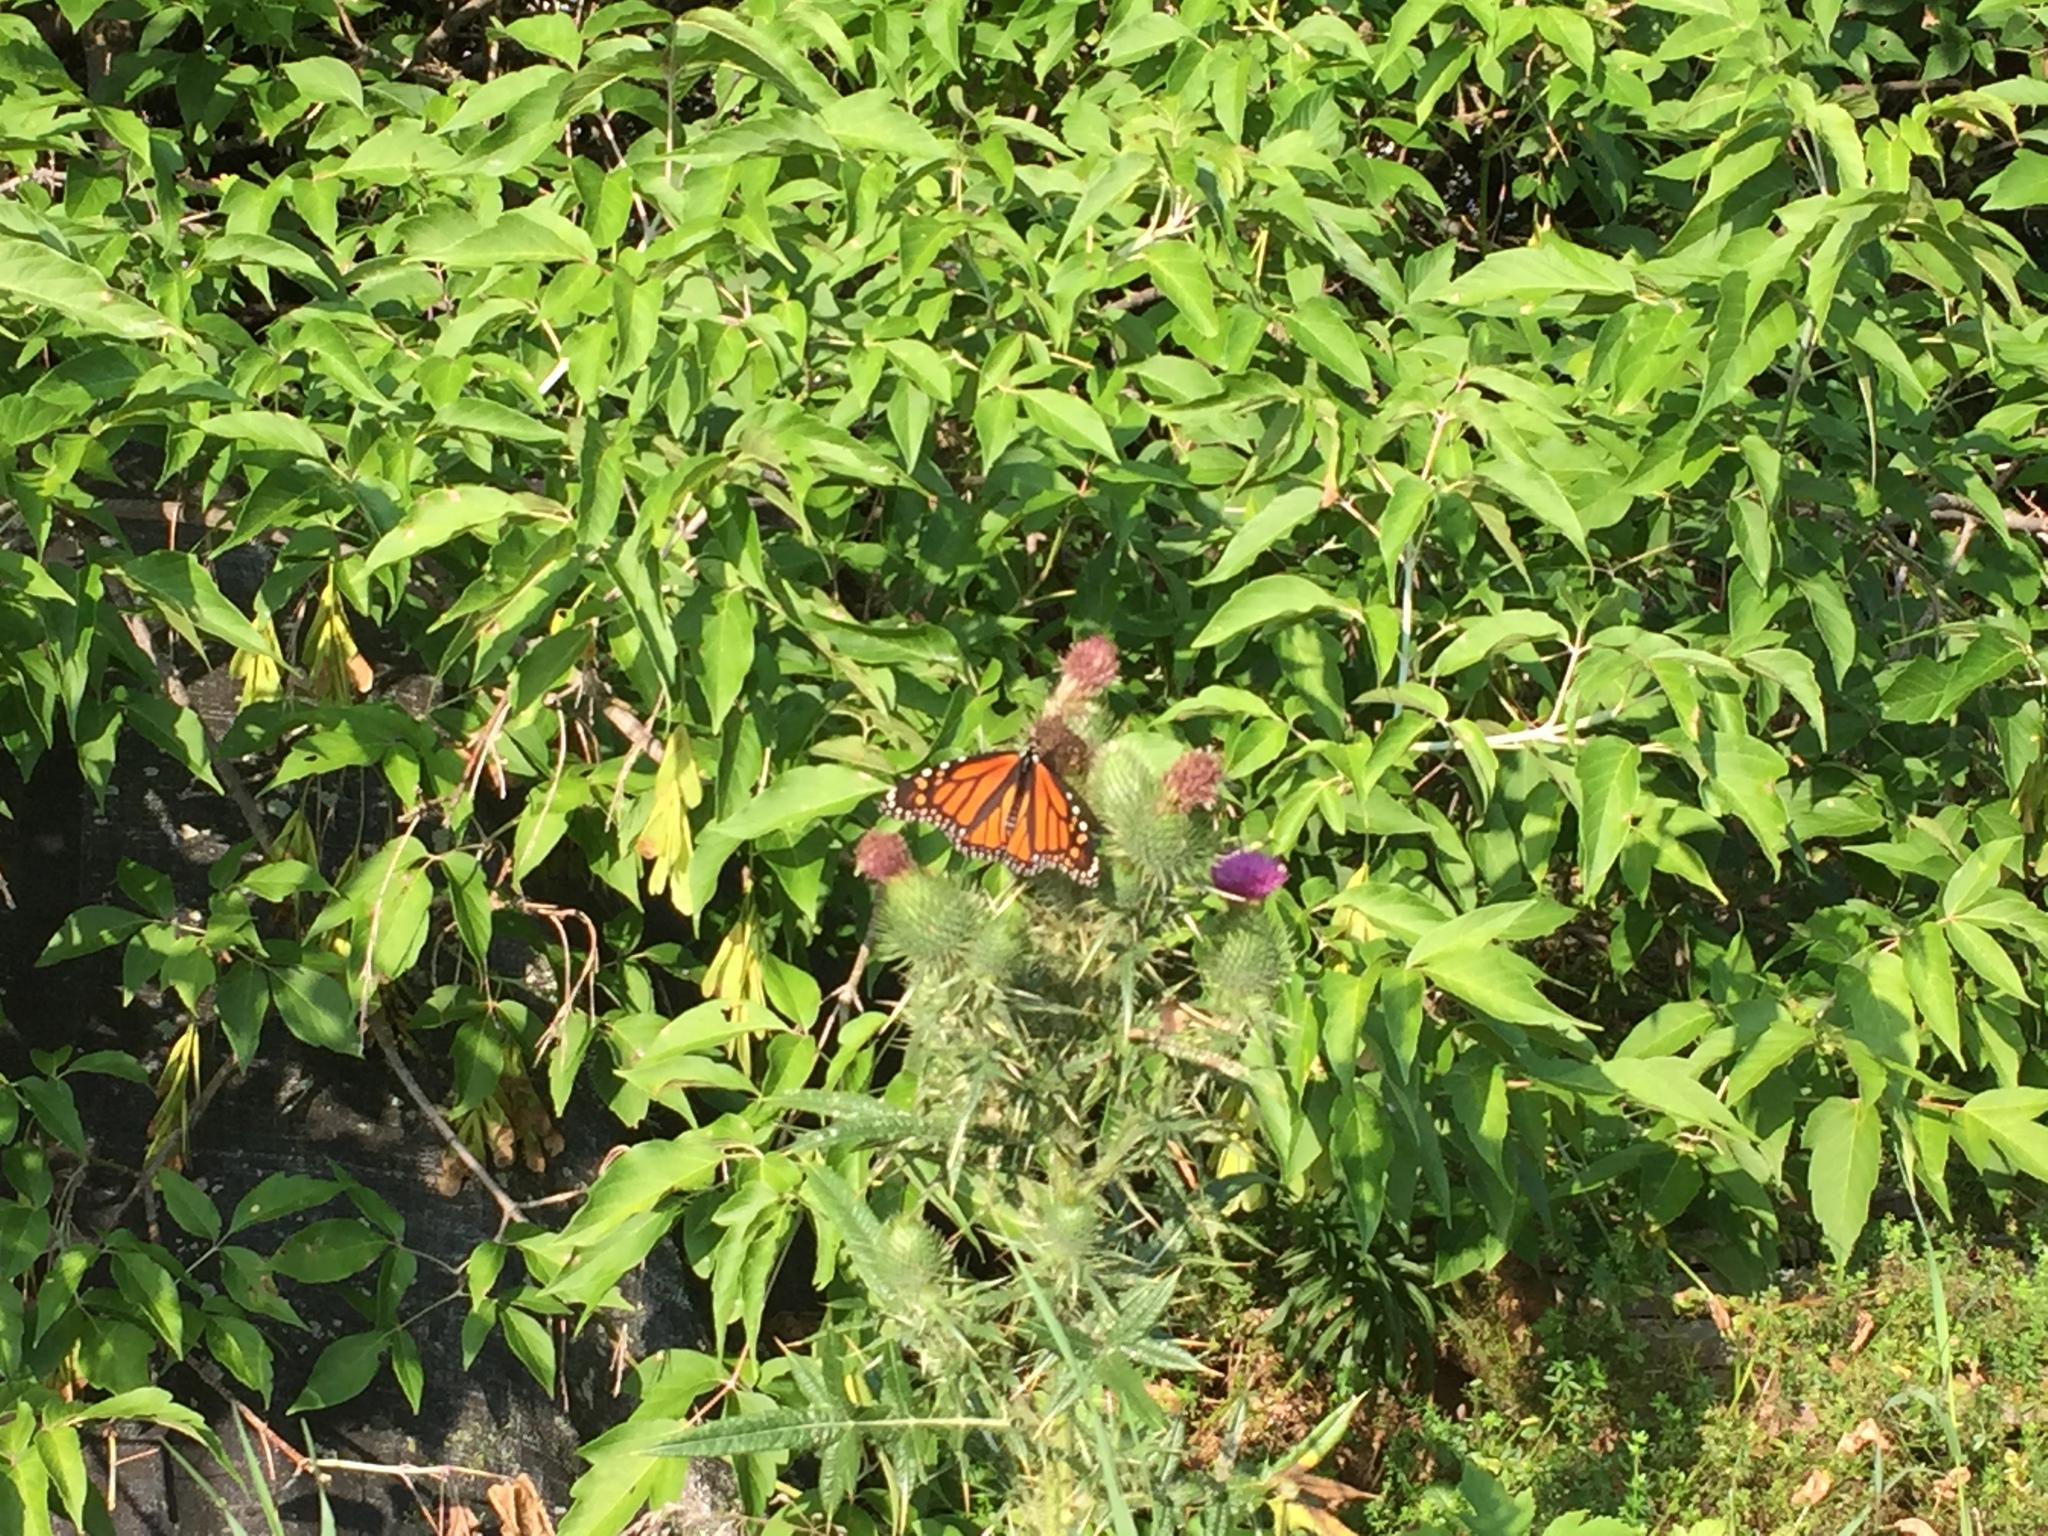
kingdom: Animalia
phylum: Arthropoda
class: Insecta
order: Lepidoptera
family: Nymphalidae
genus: Danaus
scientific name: Danaus plexippus
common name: Monarch
